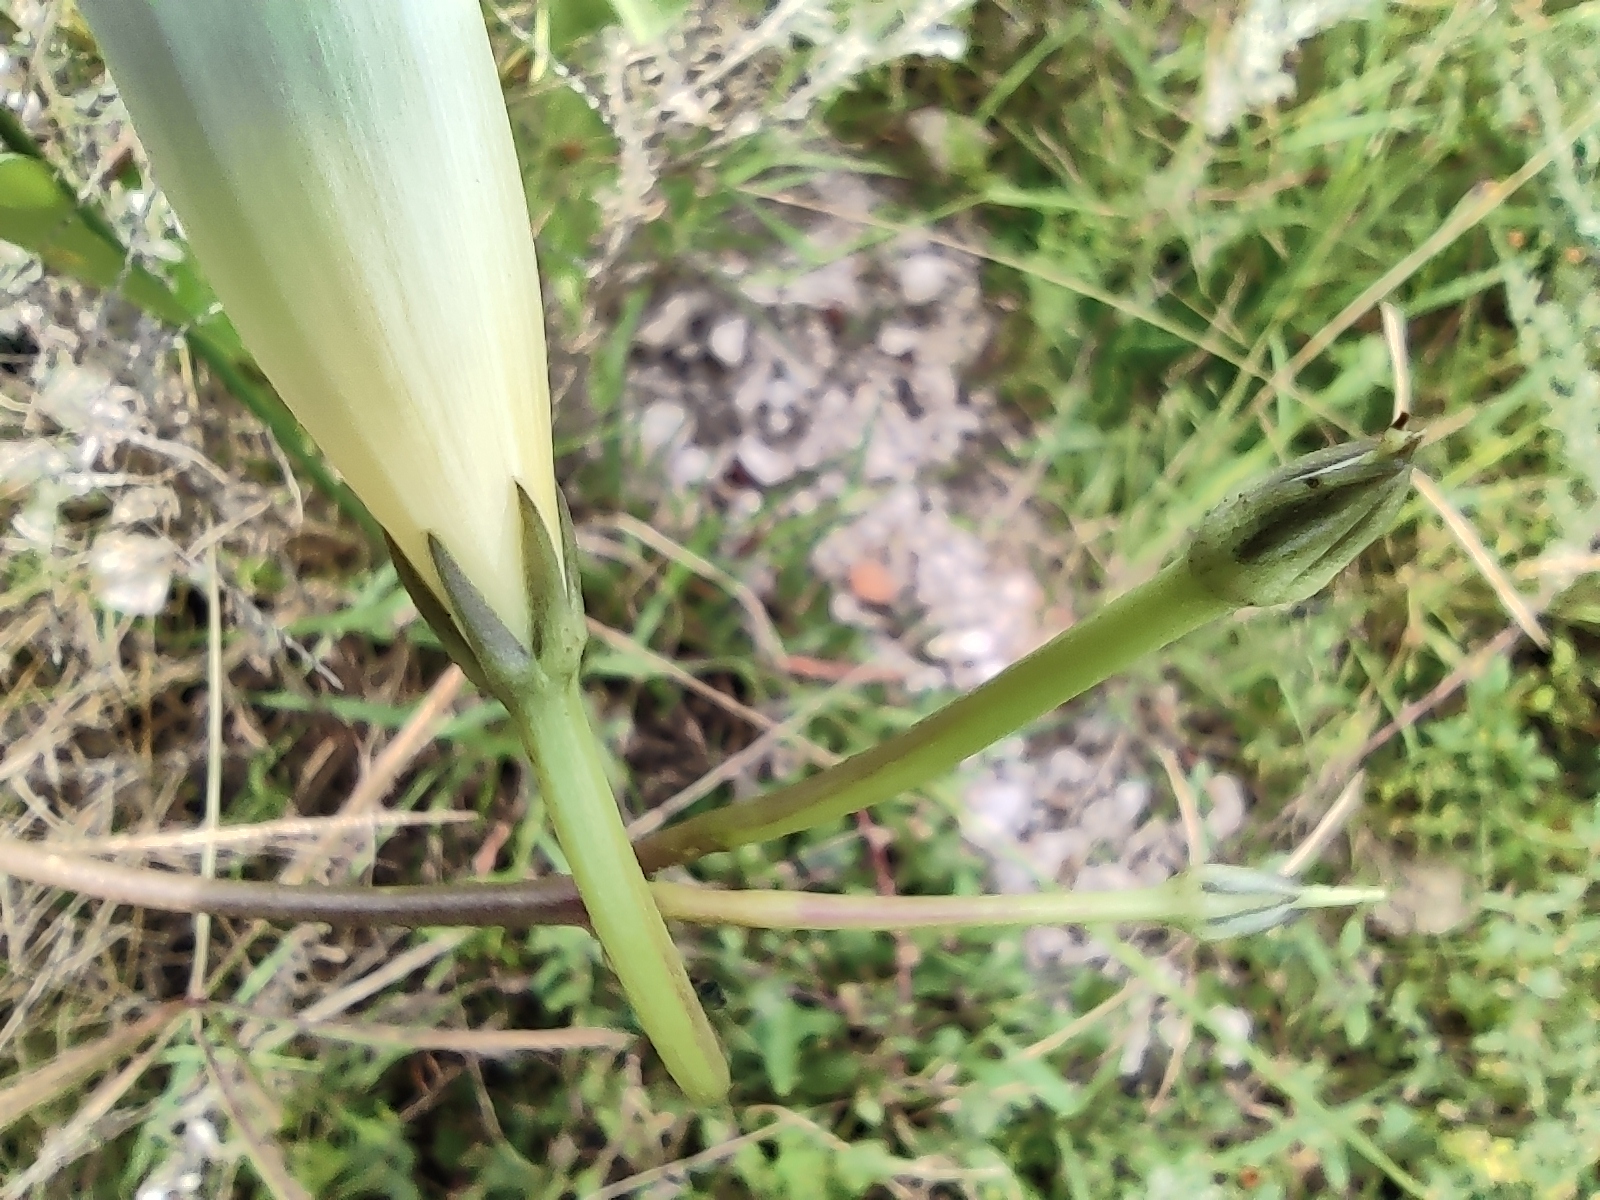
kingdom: Plantae
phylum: Tracheophyta
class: Magnoliopsida
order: Solanales
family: Convolvulaceae
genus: Ipomoea
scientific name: Ipomoea tricolor
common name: Morning-glory
